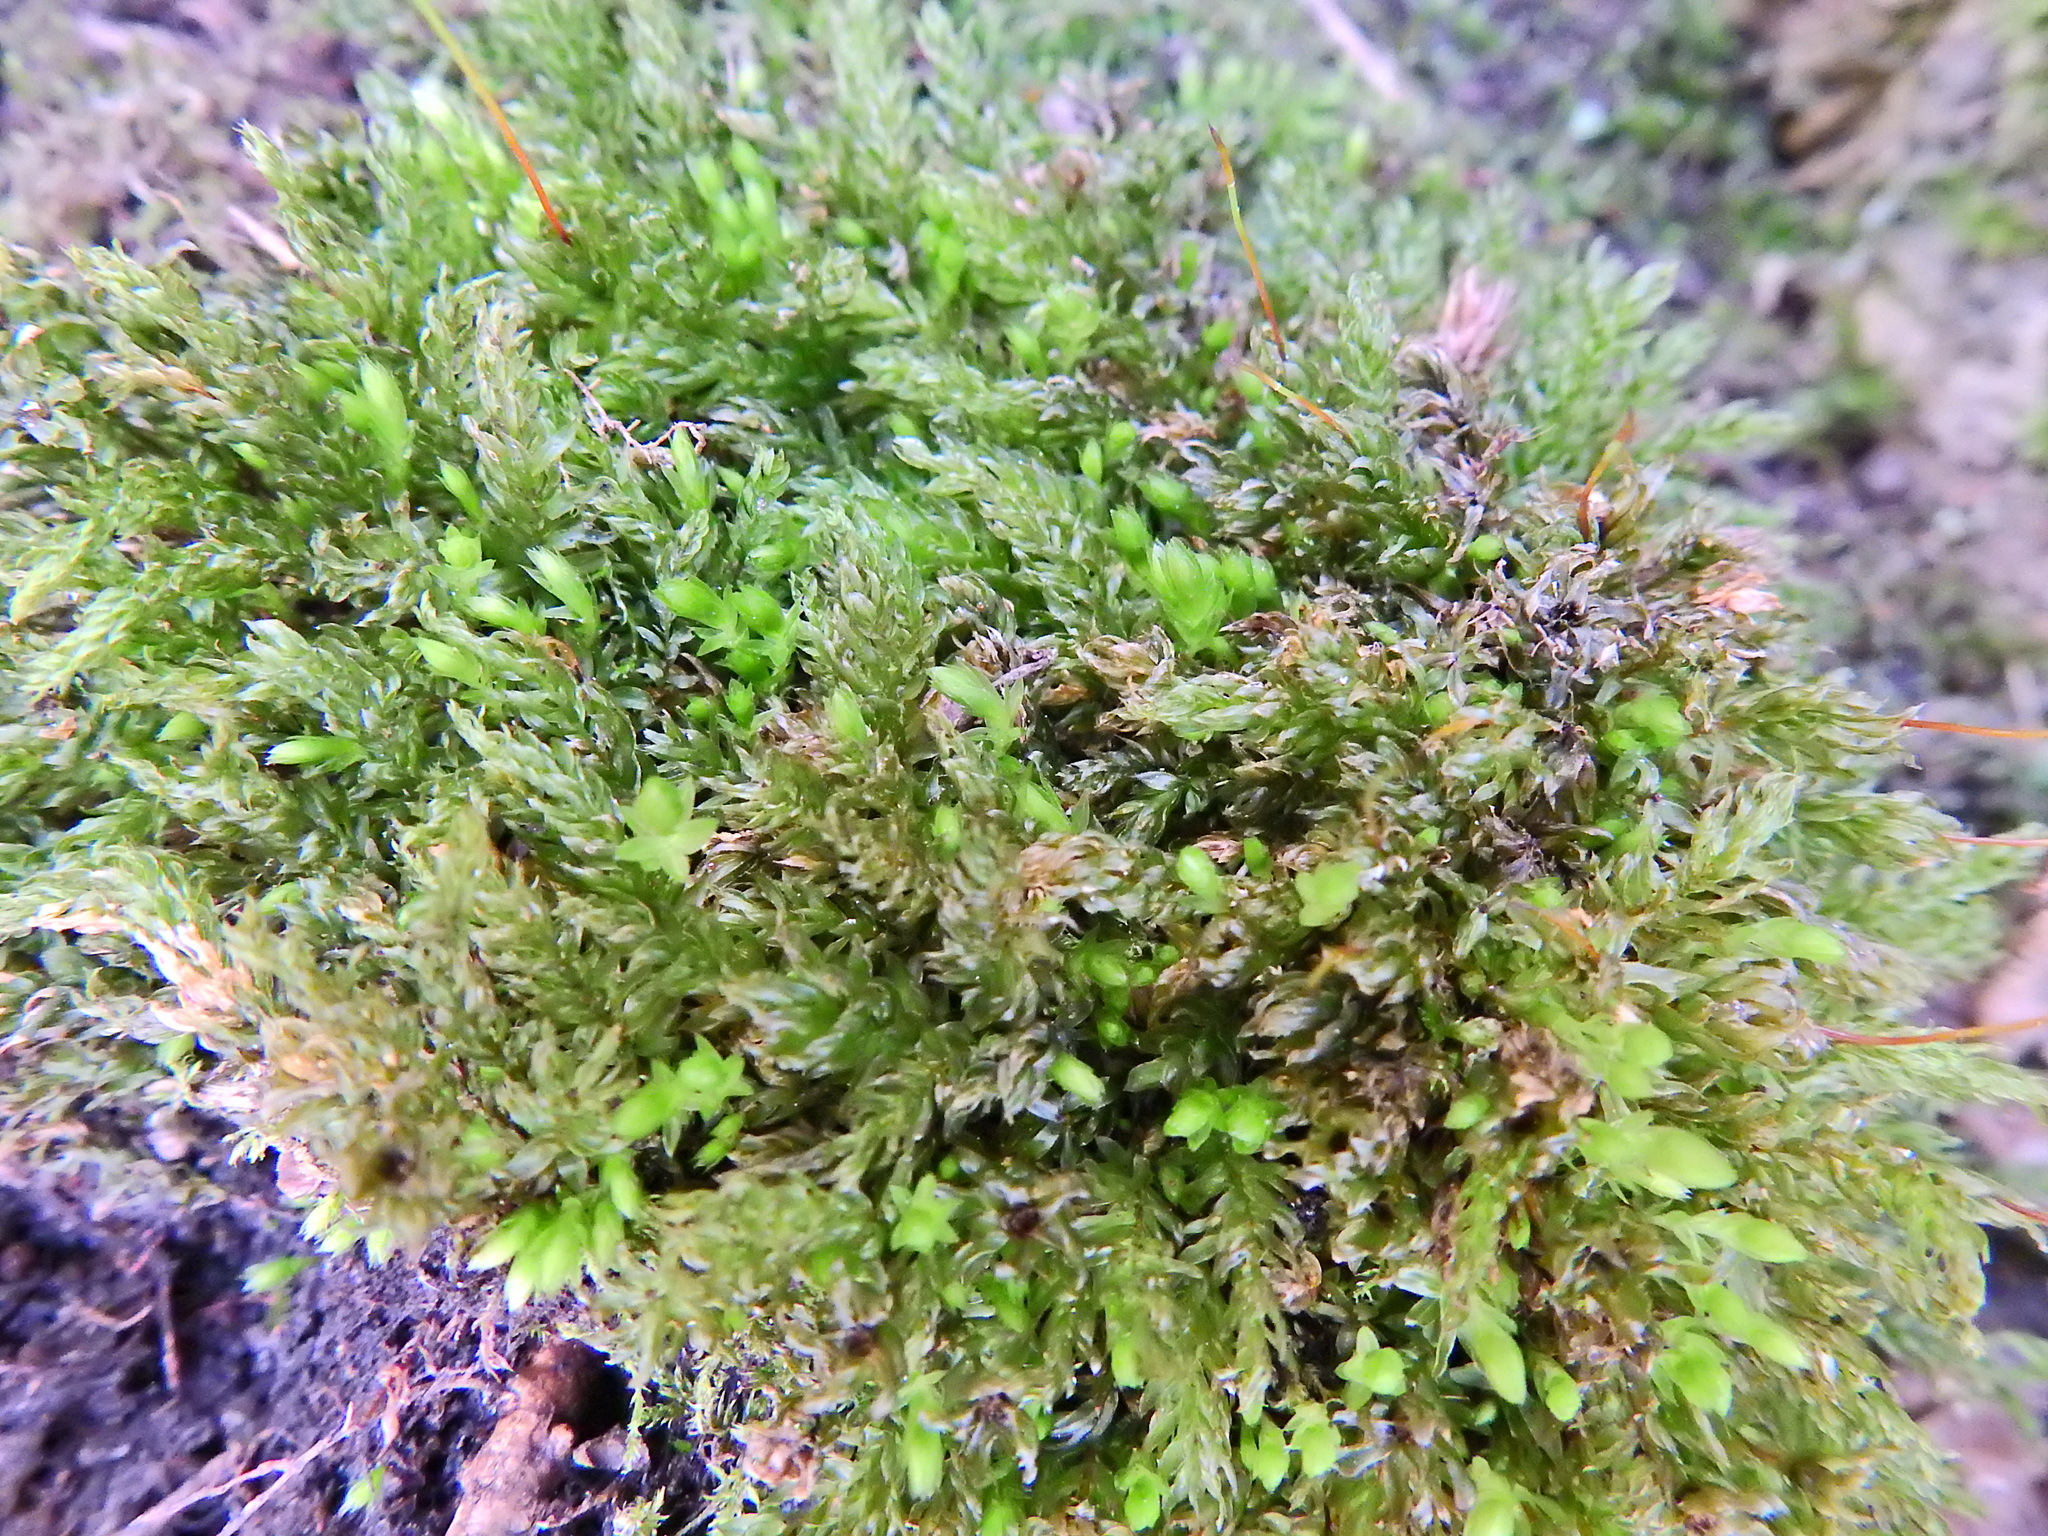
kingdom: Plantae
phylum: Bryophyta
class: Bryopsida
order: Bryales
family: Mniaceae
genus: Mnium
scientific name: Mnium hornum
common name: Swan's-neck leafy moss
